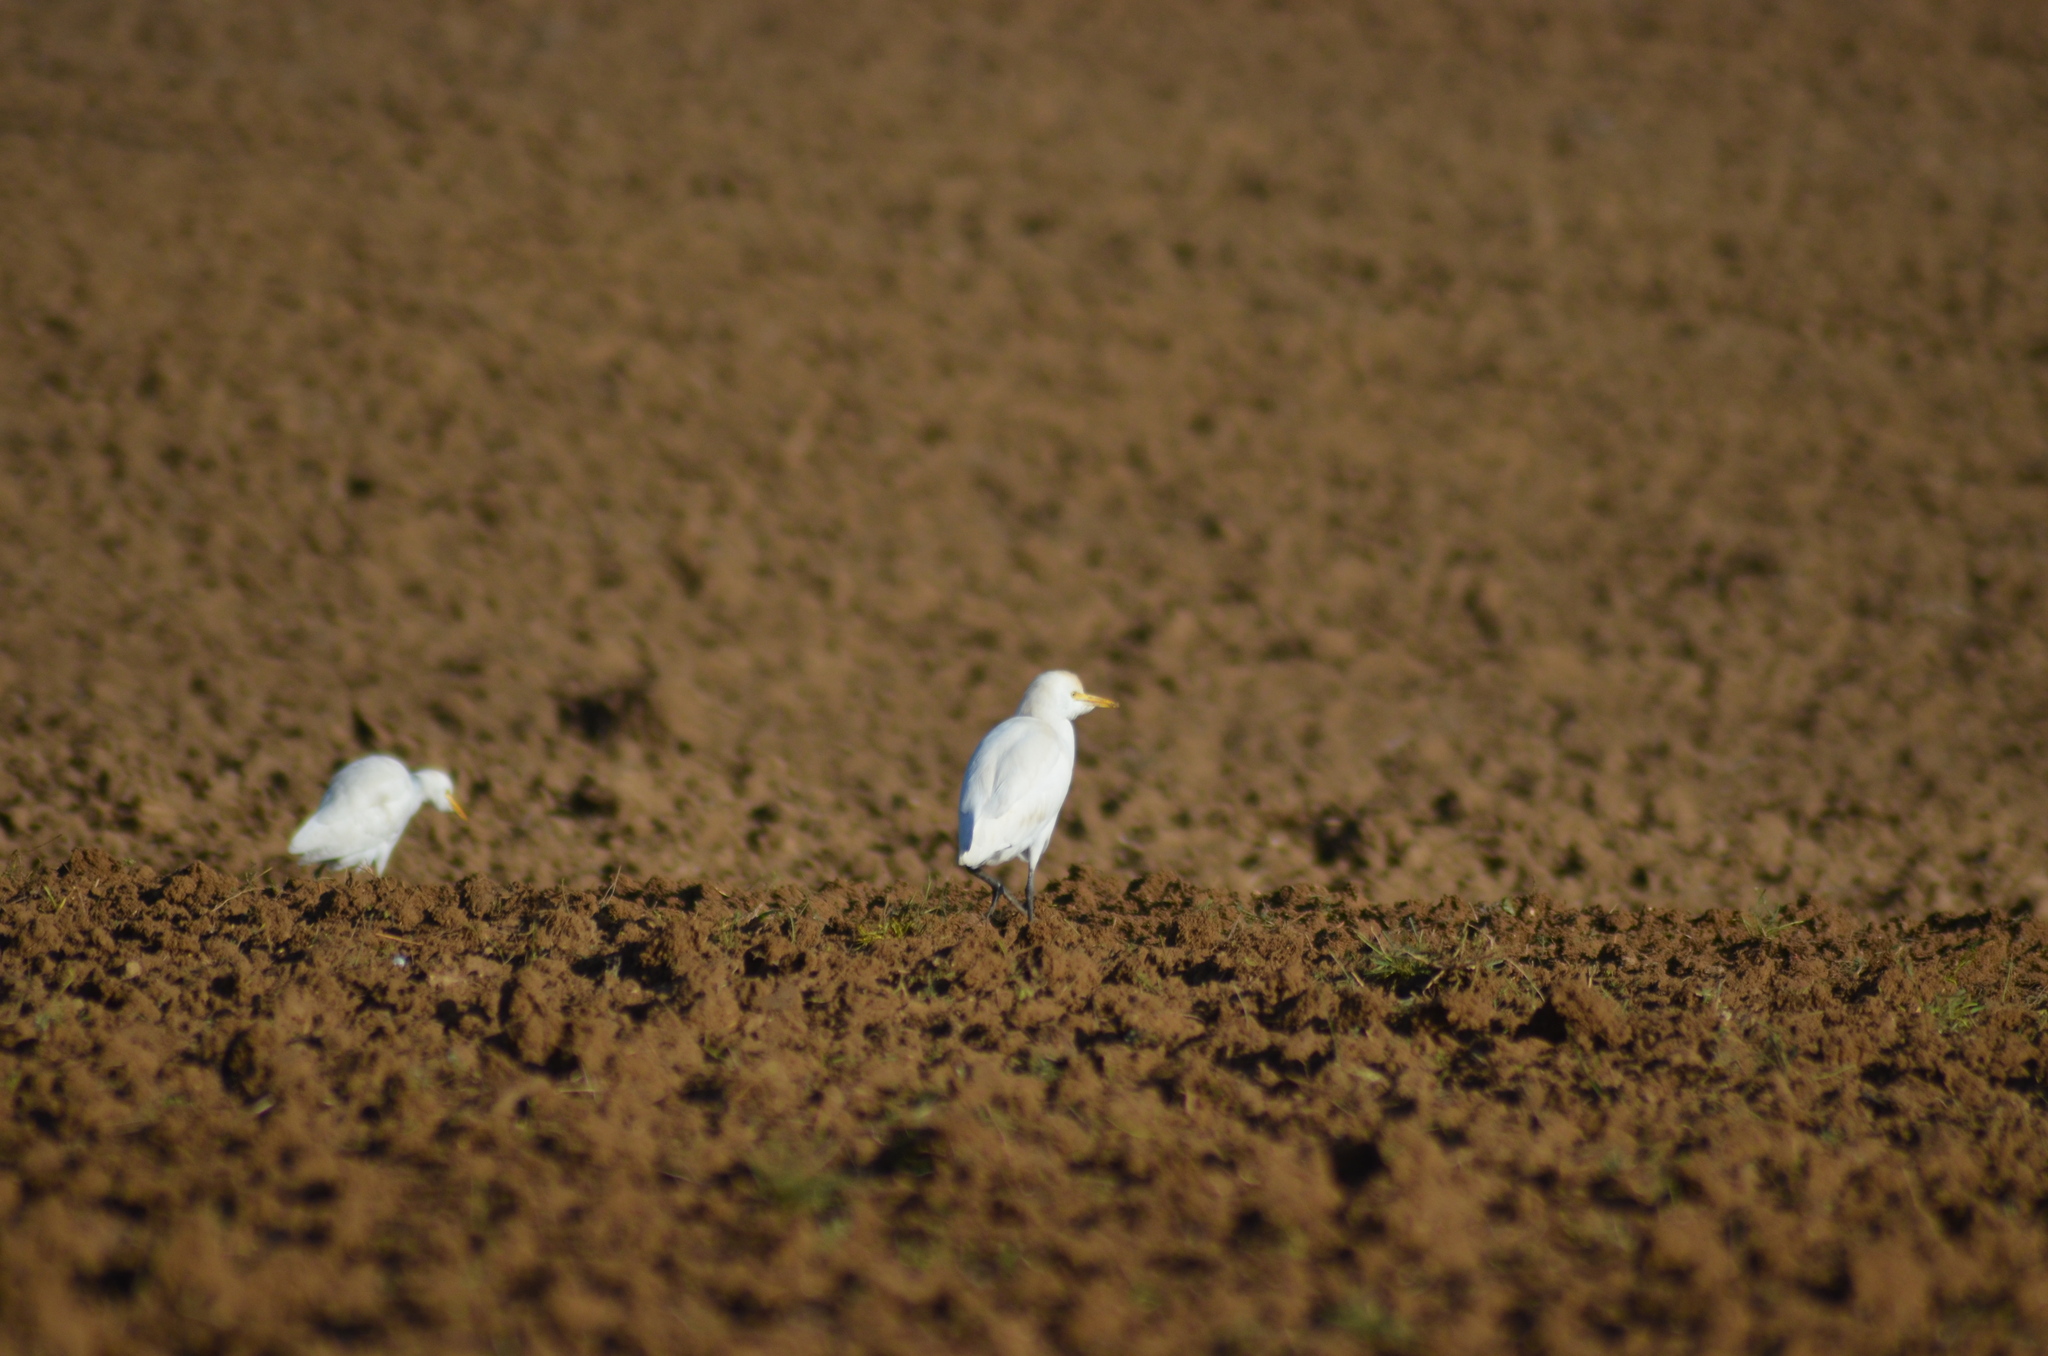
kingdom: Animalia
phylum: Chordata
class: Aves
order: Pelecaniformes
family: Ardeidae
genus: Bubulcus
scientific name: Bubulcus ibis
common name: Cattle egret
